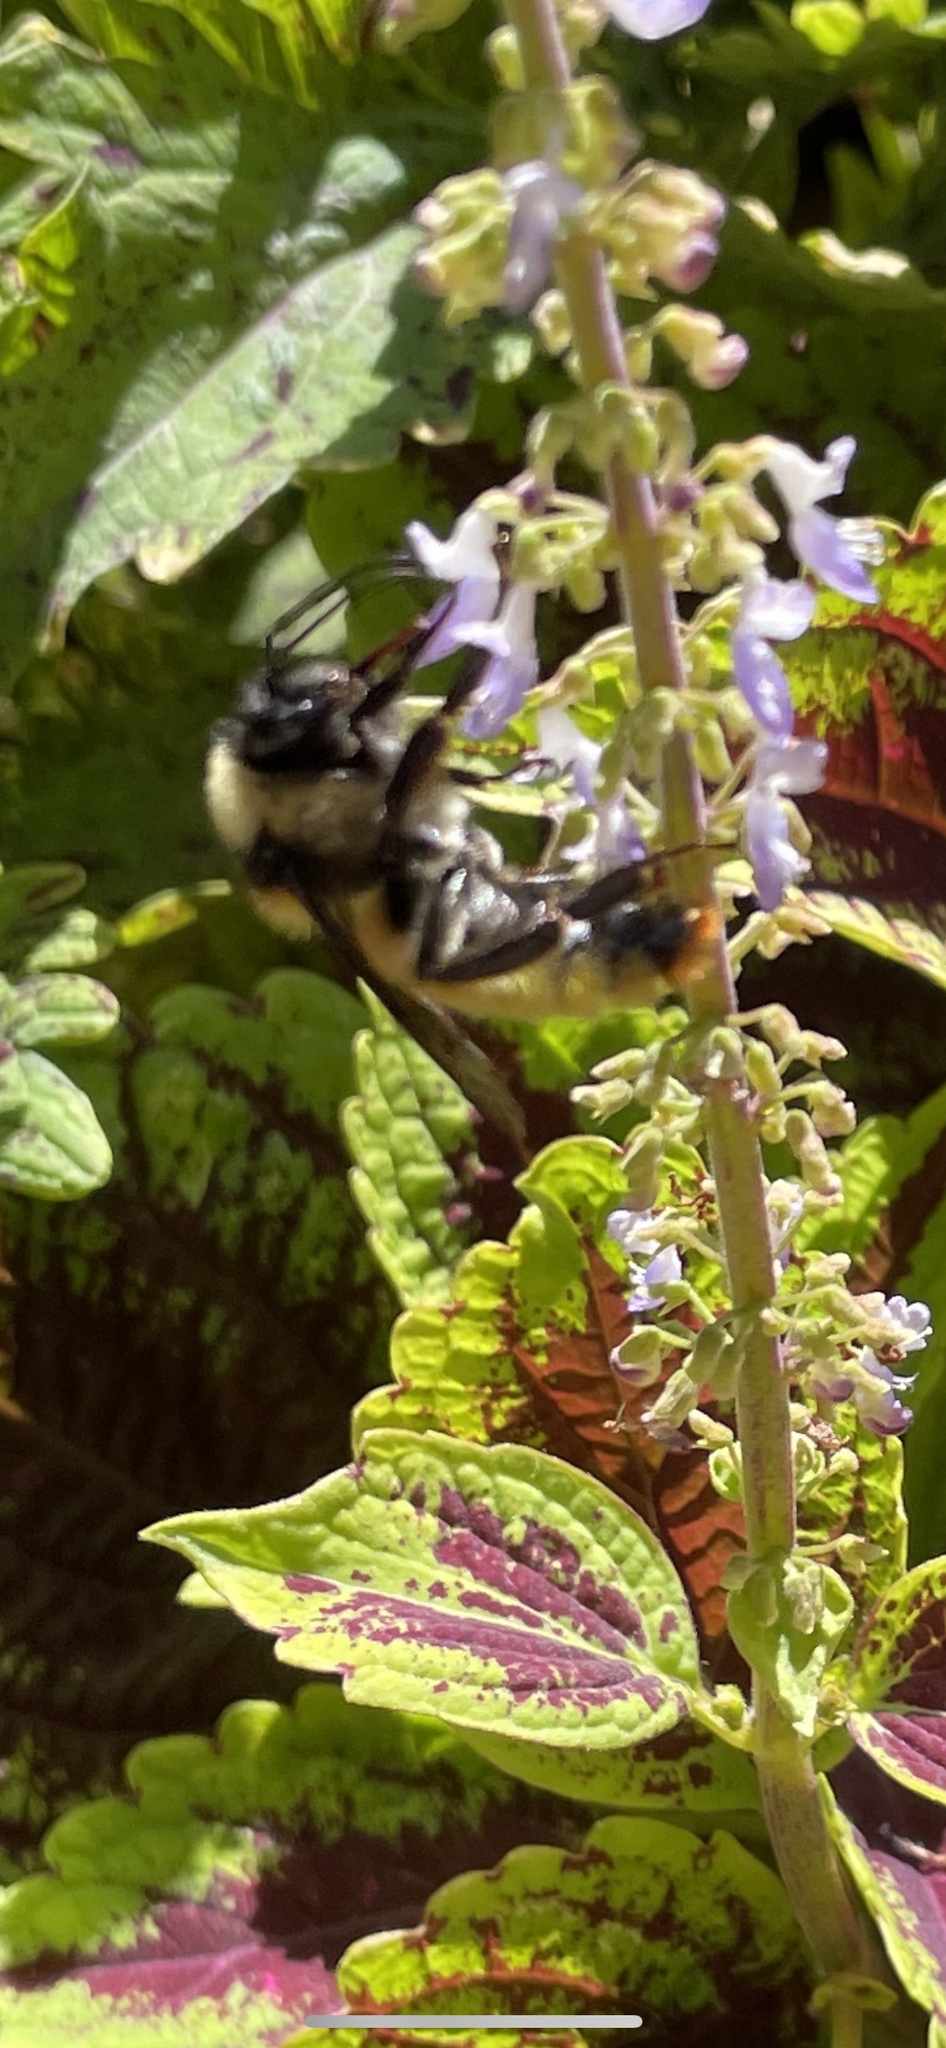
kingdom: Animalia
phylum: Arthropoda
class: Insecta
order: Hymenoptera
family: Apidae
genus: Bombus
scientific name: Bombus pensylvanicus
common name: Bumble bee
